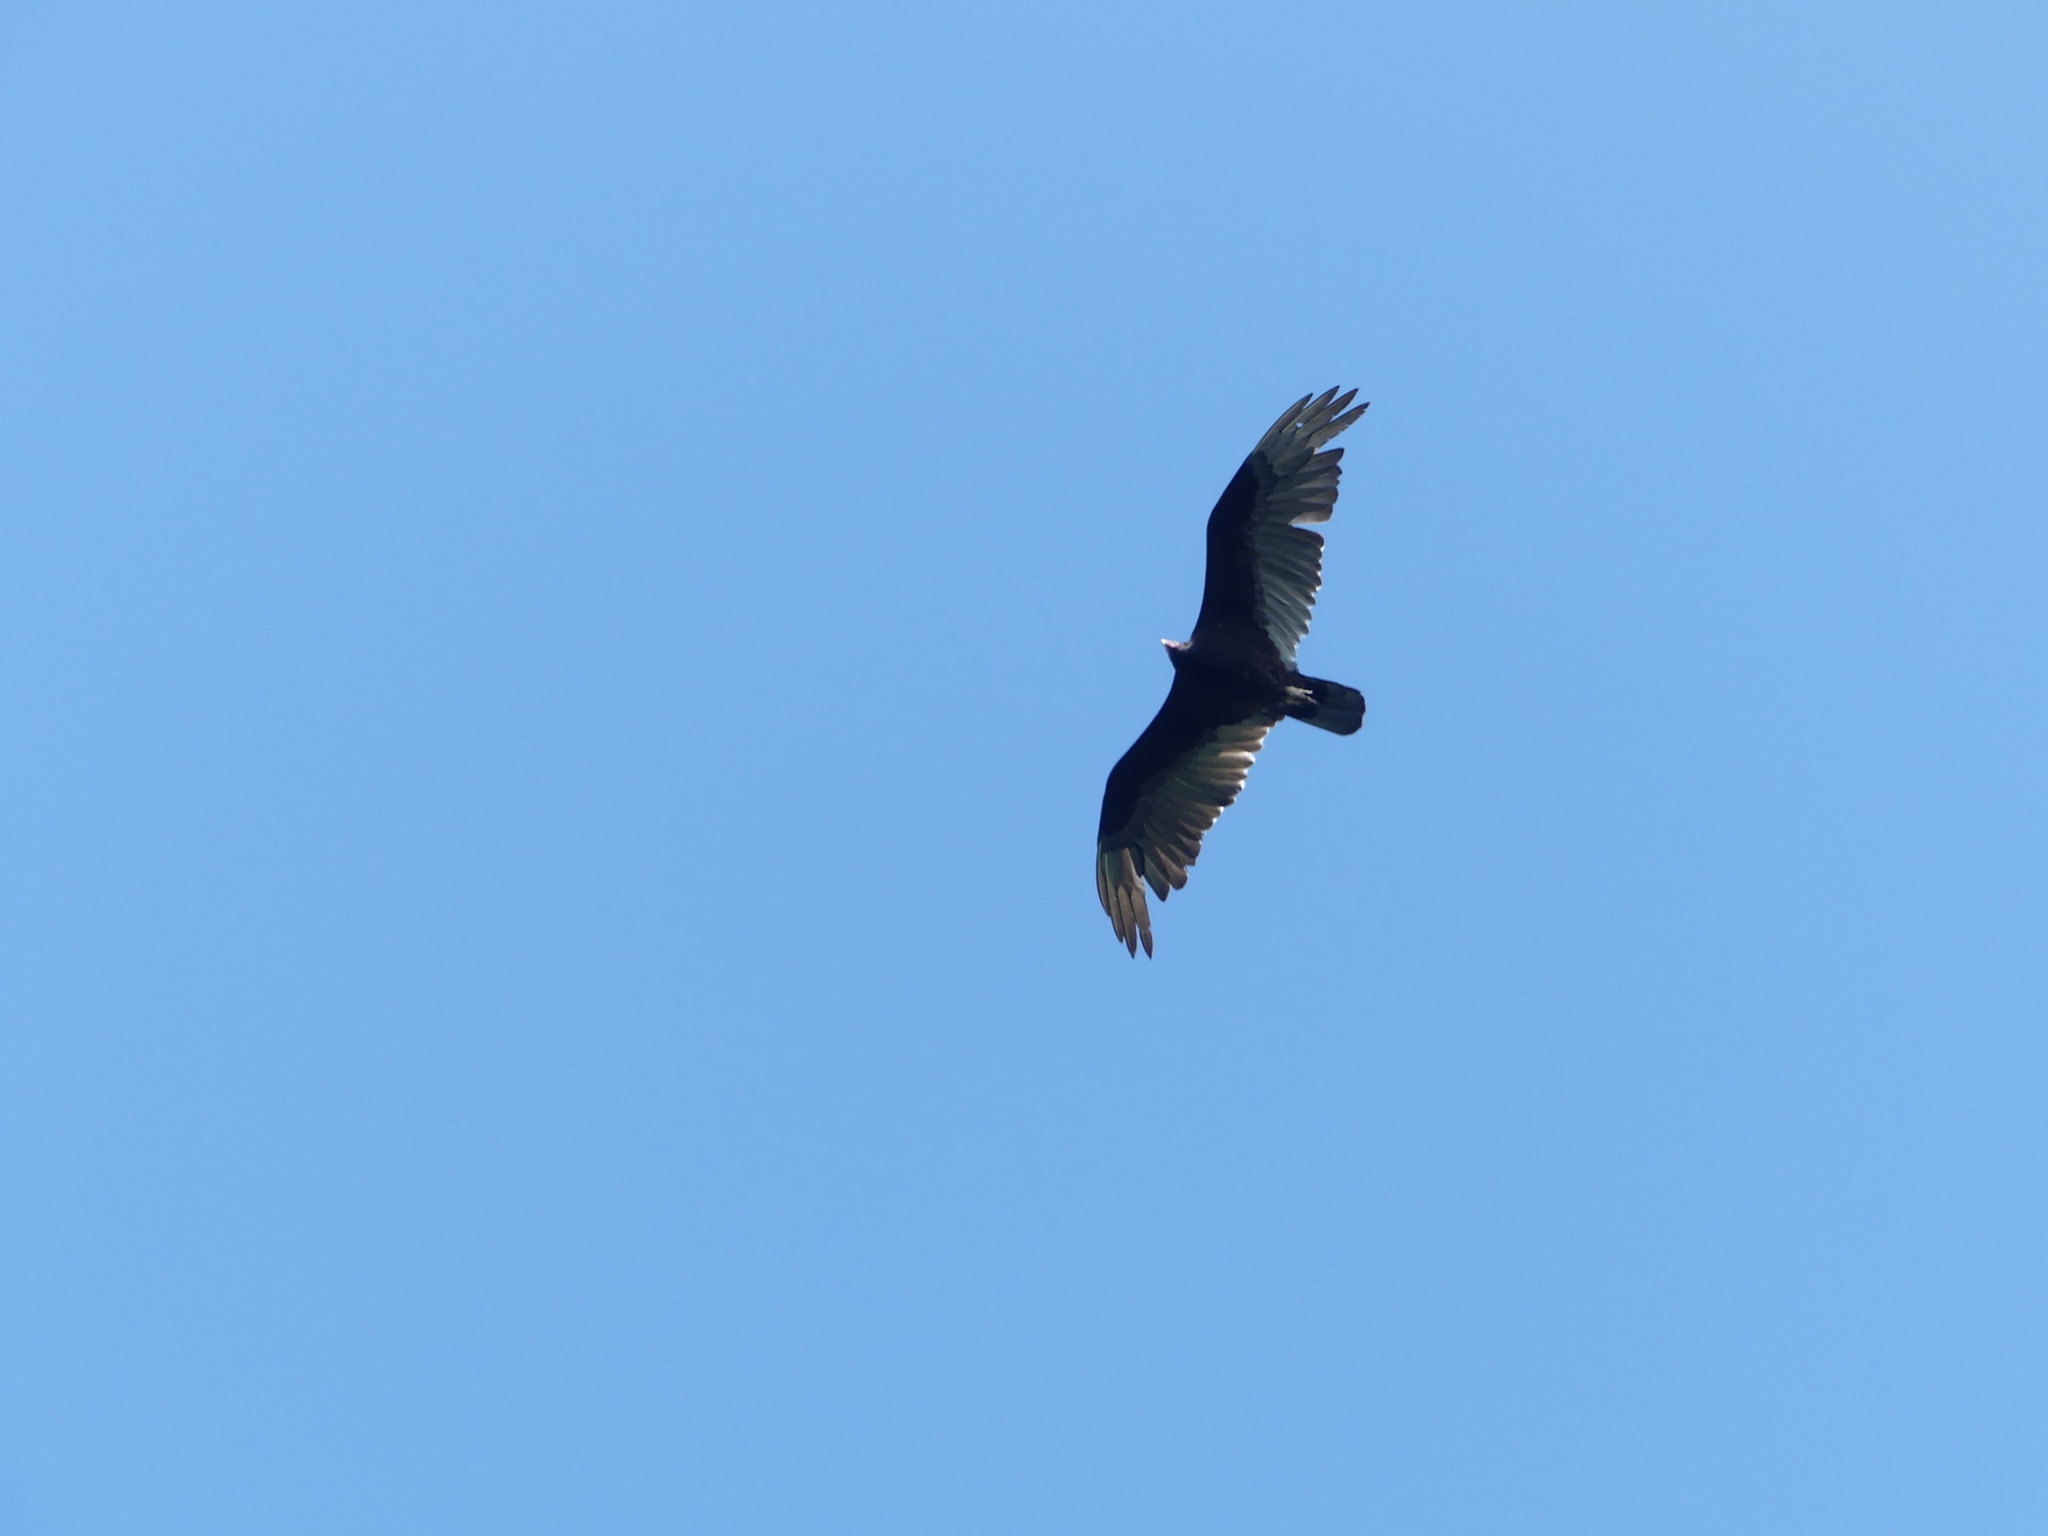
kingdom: Animalia
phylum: Chordata
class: Aves
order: Accipitriformes
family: Cathartidae
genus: Cathartes
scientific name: Cathartes aura
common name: Turkey vulture
